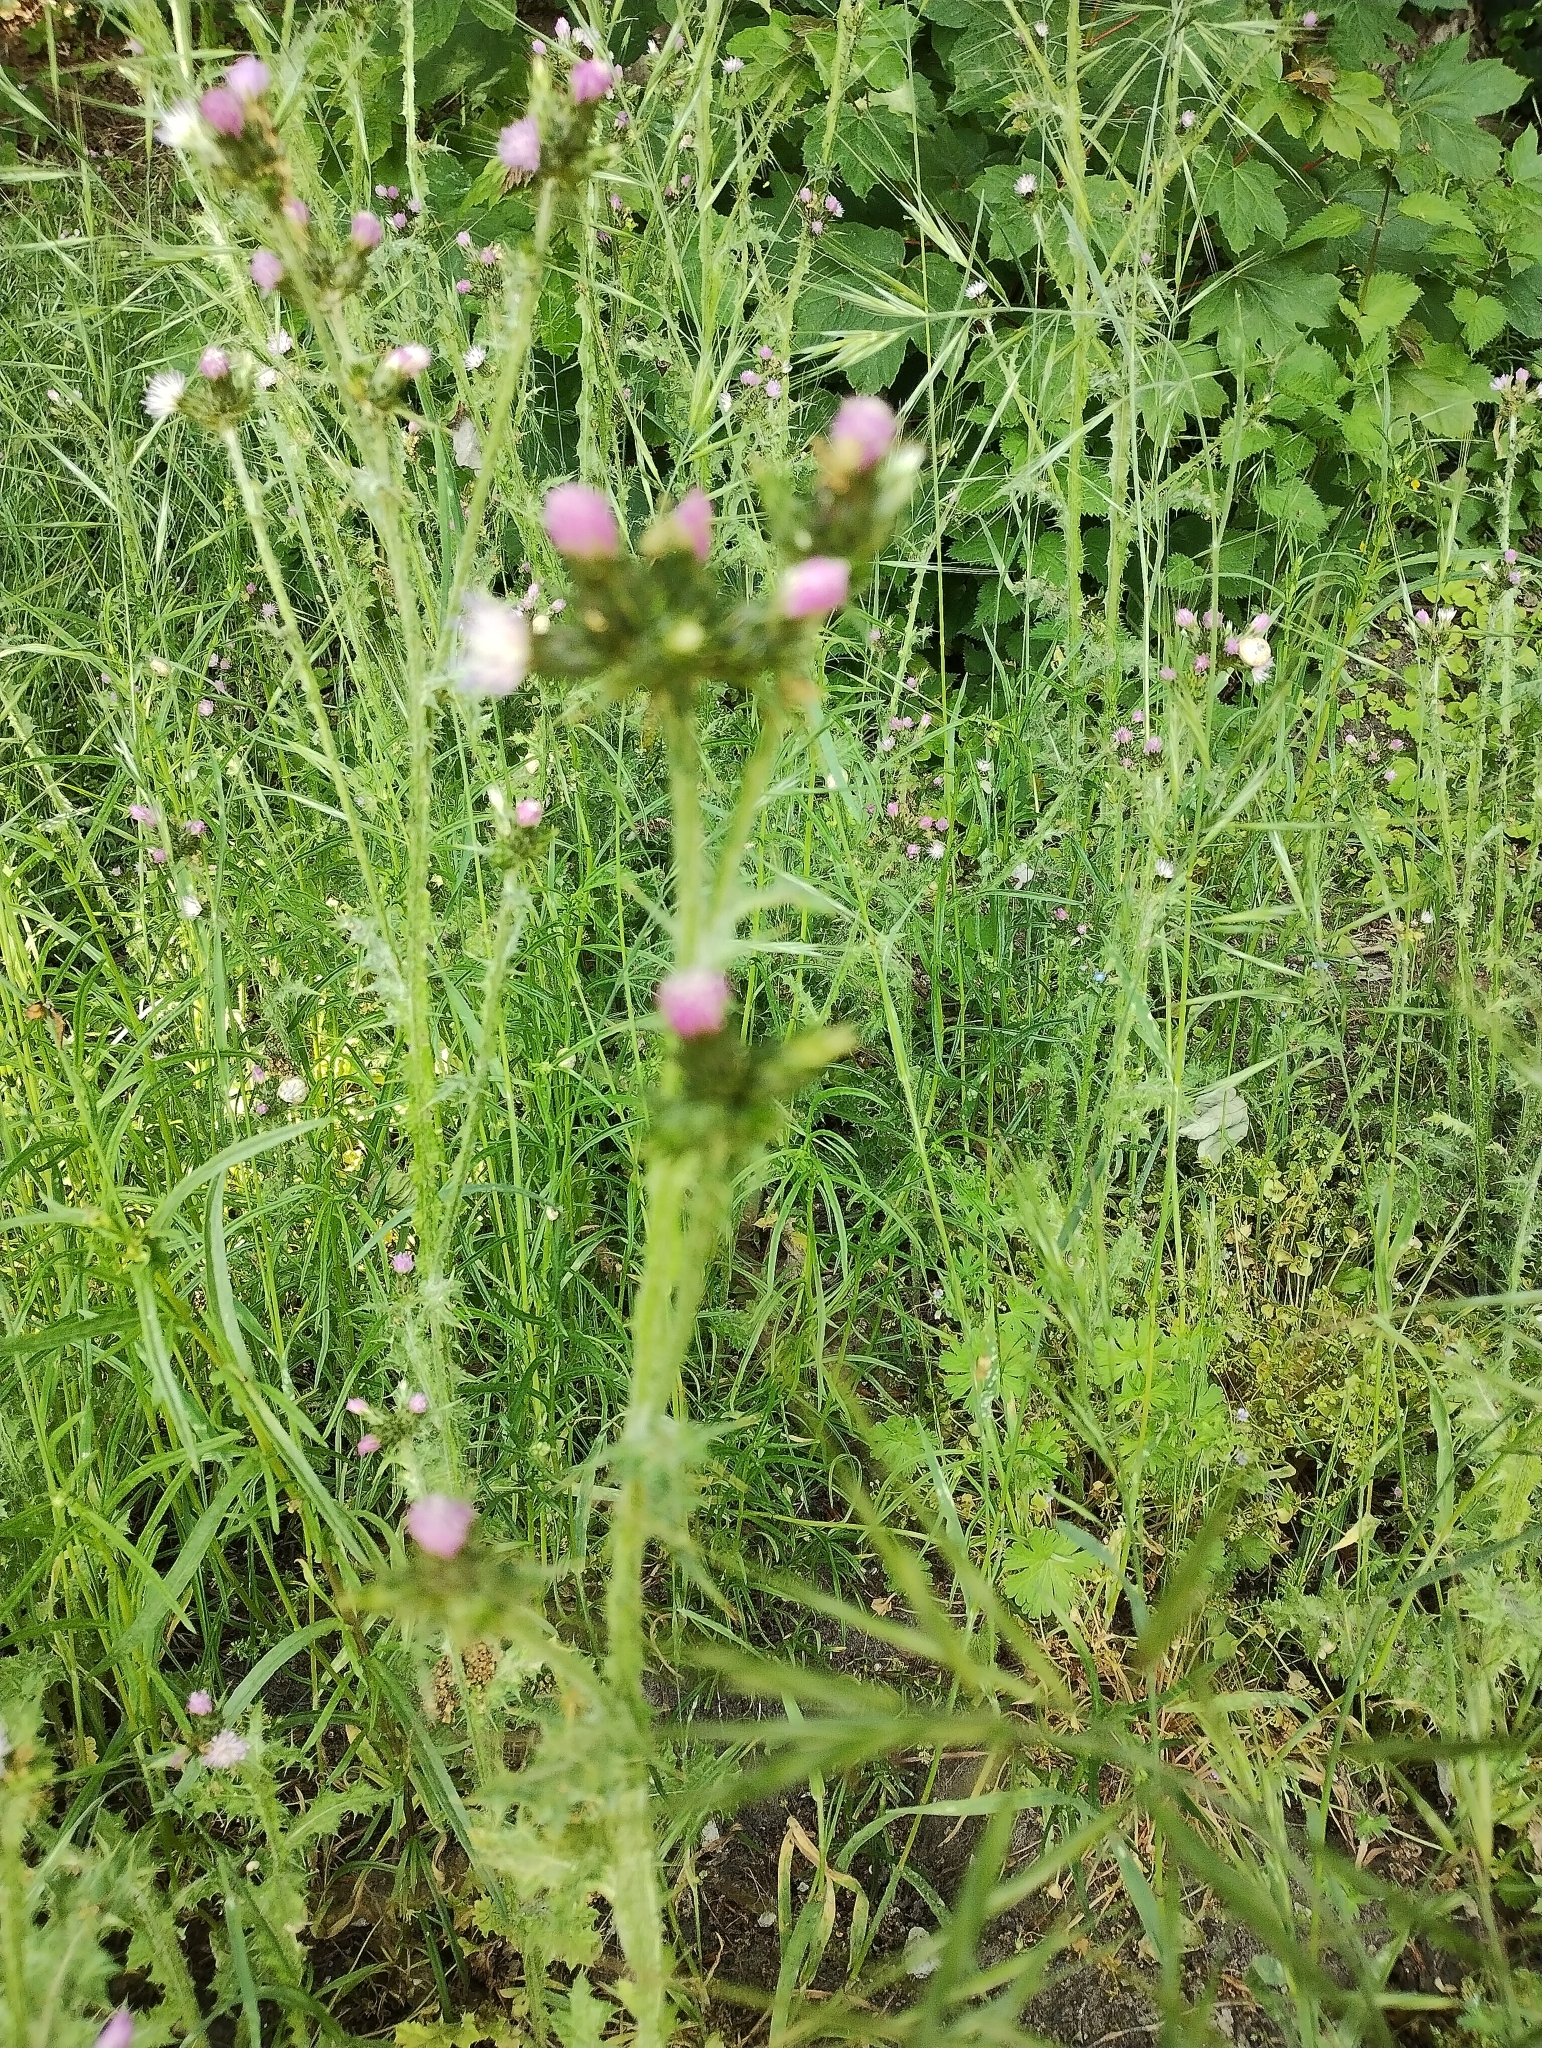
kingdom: Plantae
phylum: Tracheophyta
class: Magnoliopsida
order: Asterales
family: Asteraceae
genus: Carduus
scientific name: Carduus tenuiflorus
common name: Slender thistle
